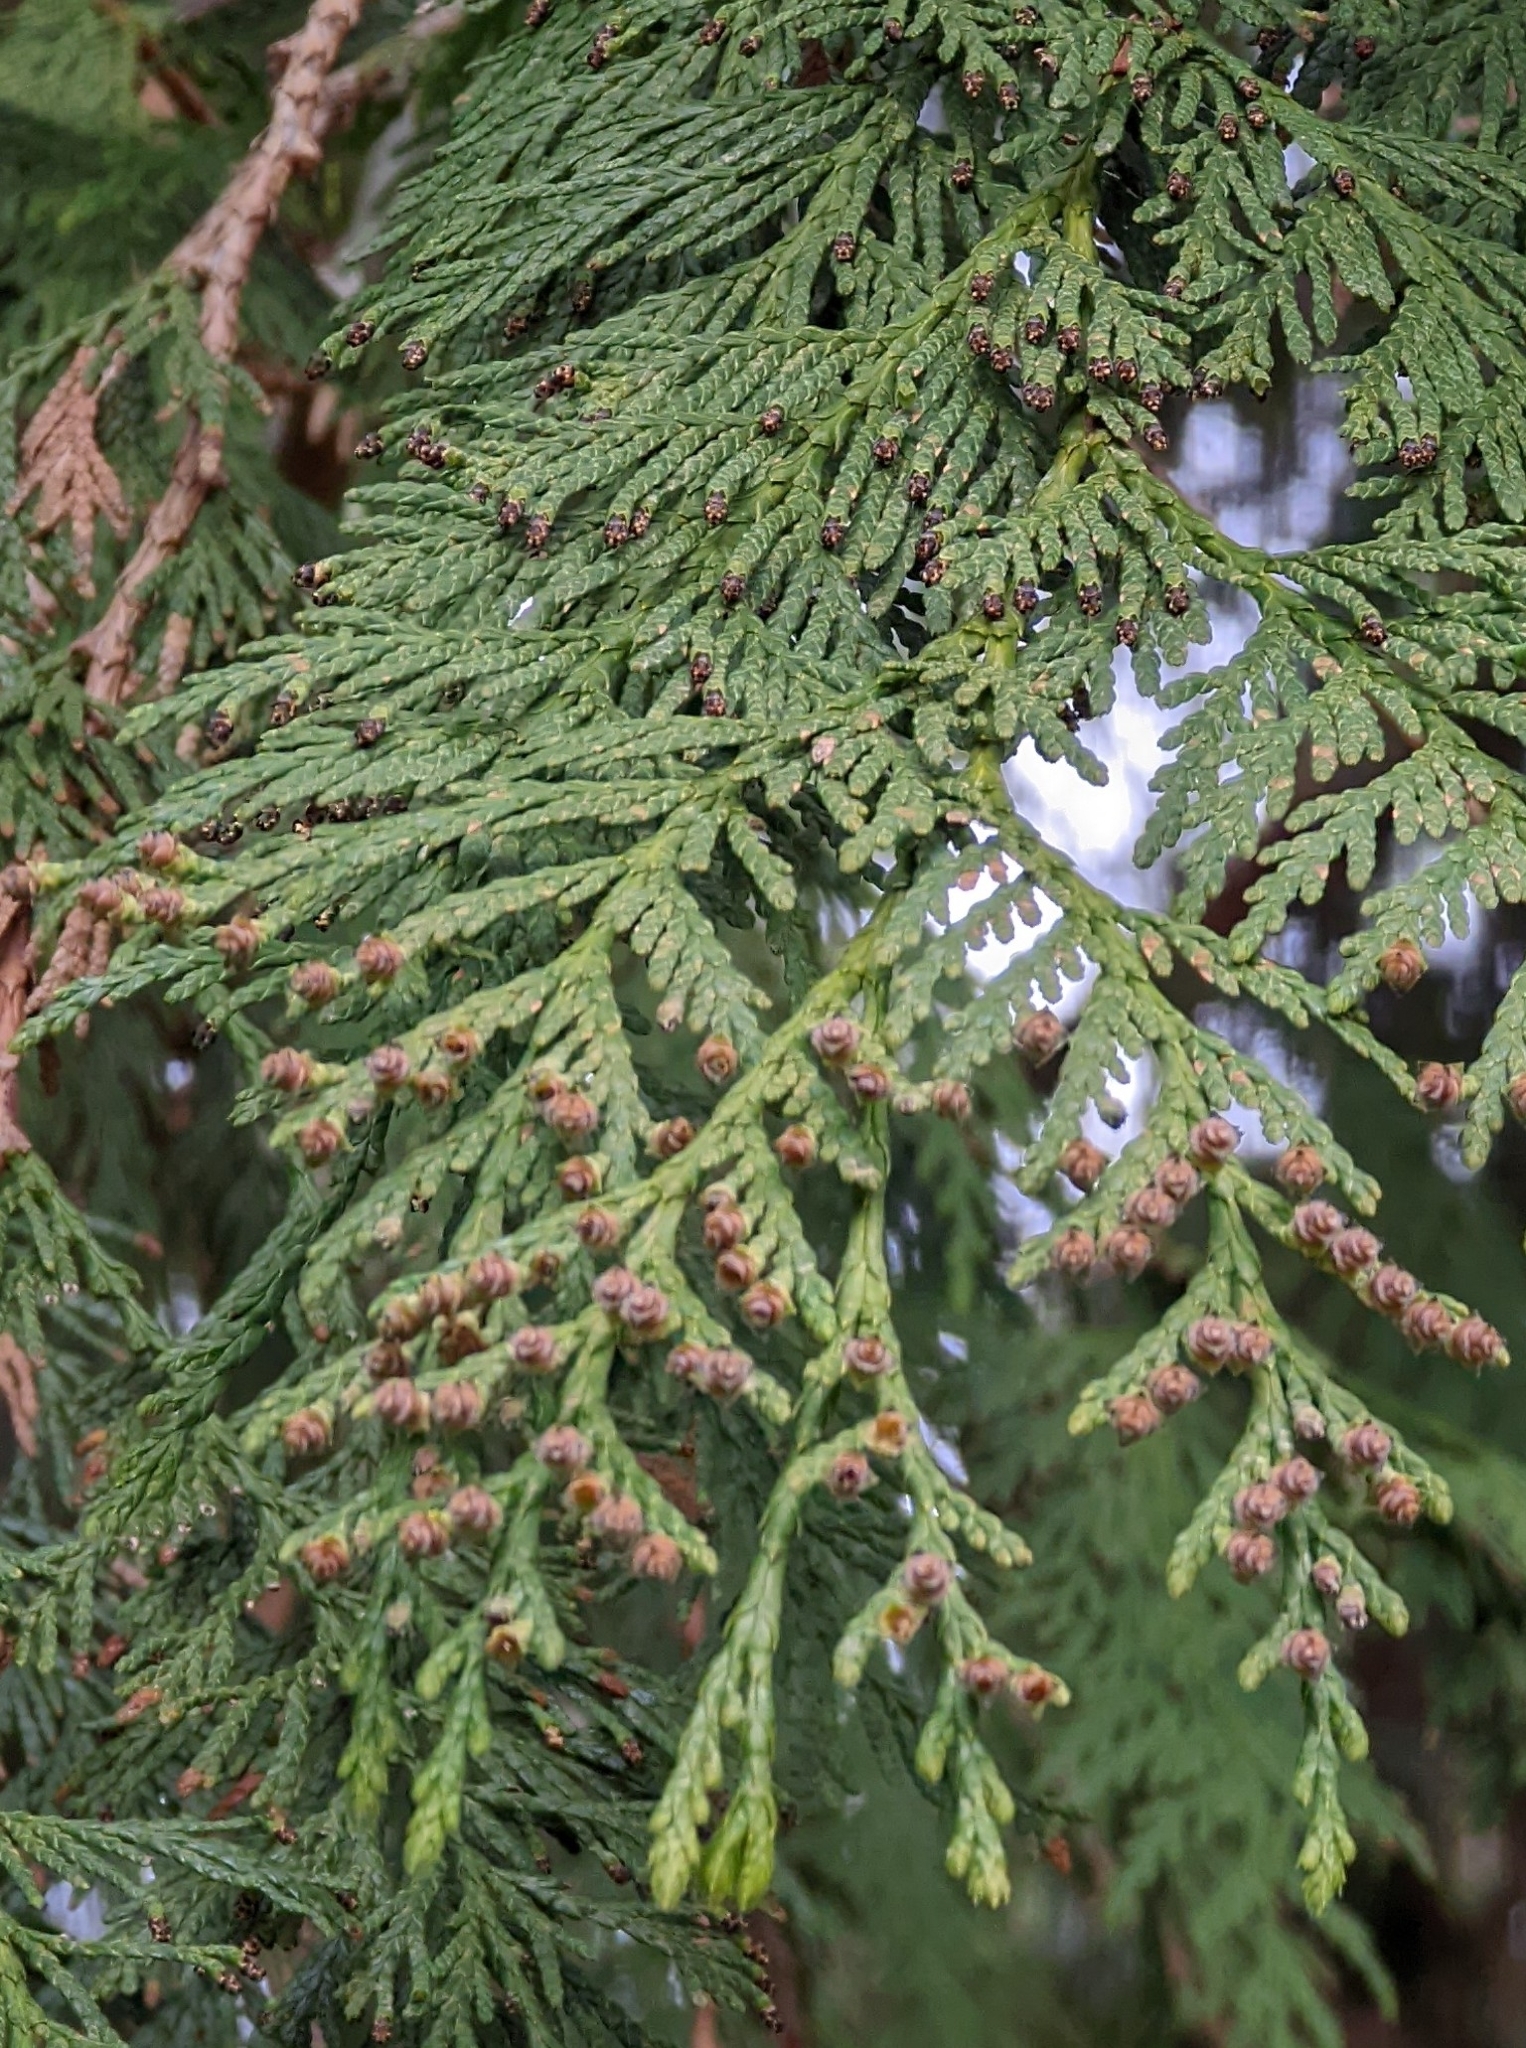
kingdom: Plantae
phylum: Tracheophyta
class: Pinopsida
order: Pinales
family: Cupressaceae
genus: Thuja
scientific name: Thuja plicata
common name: Western red-cedar
